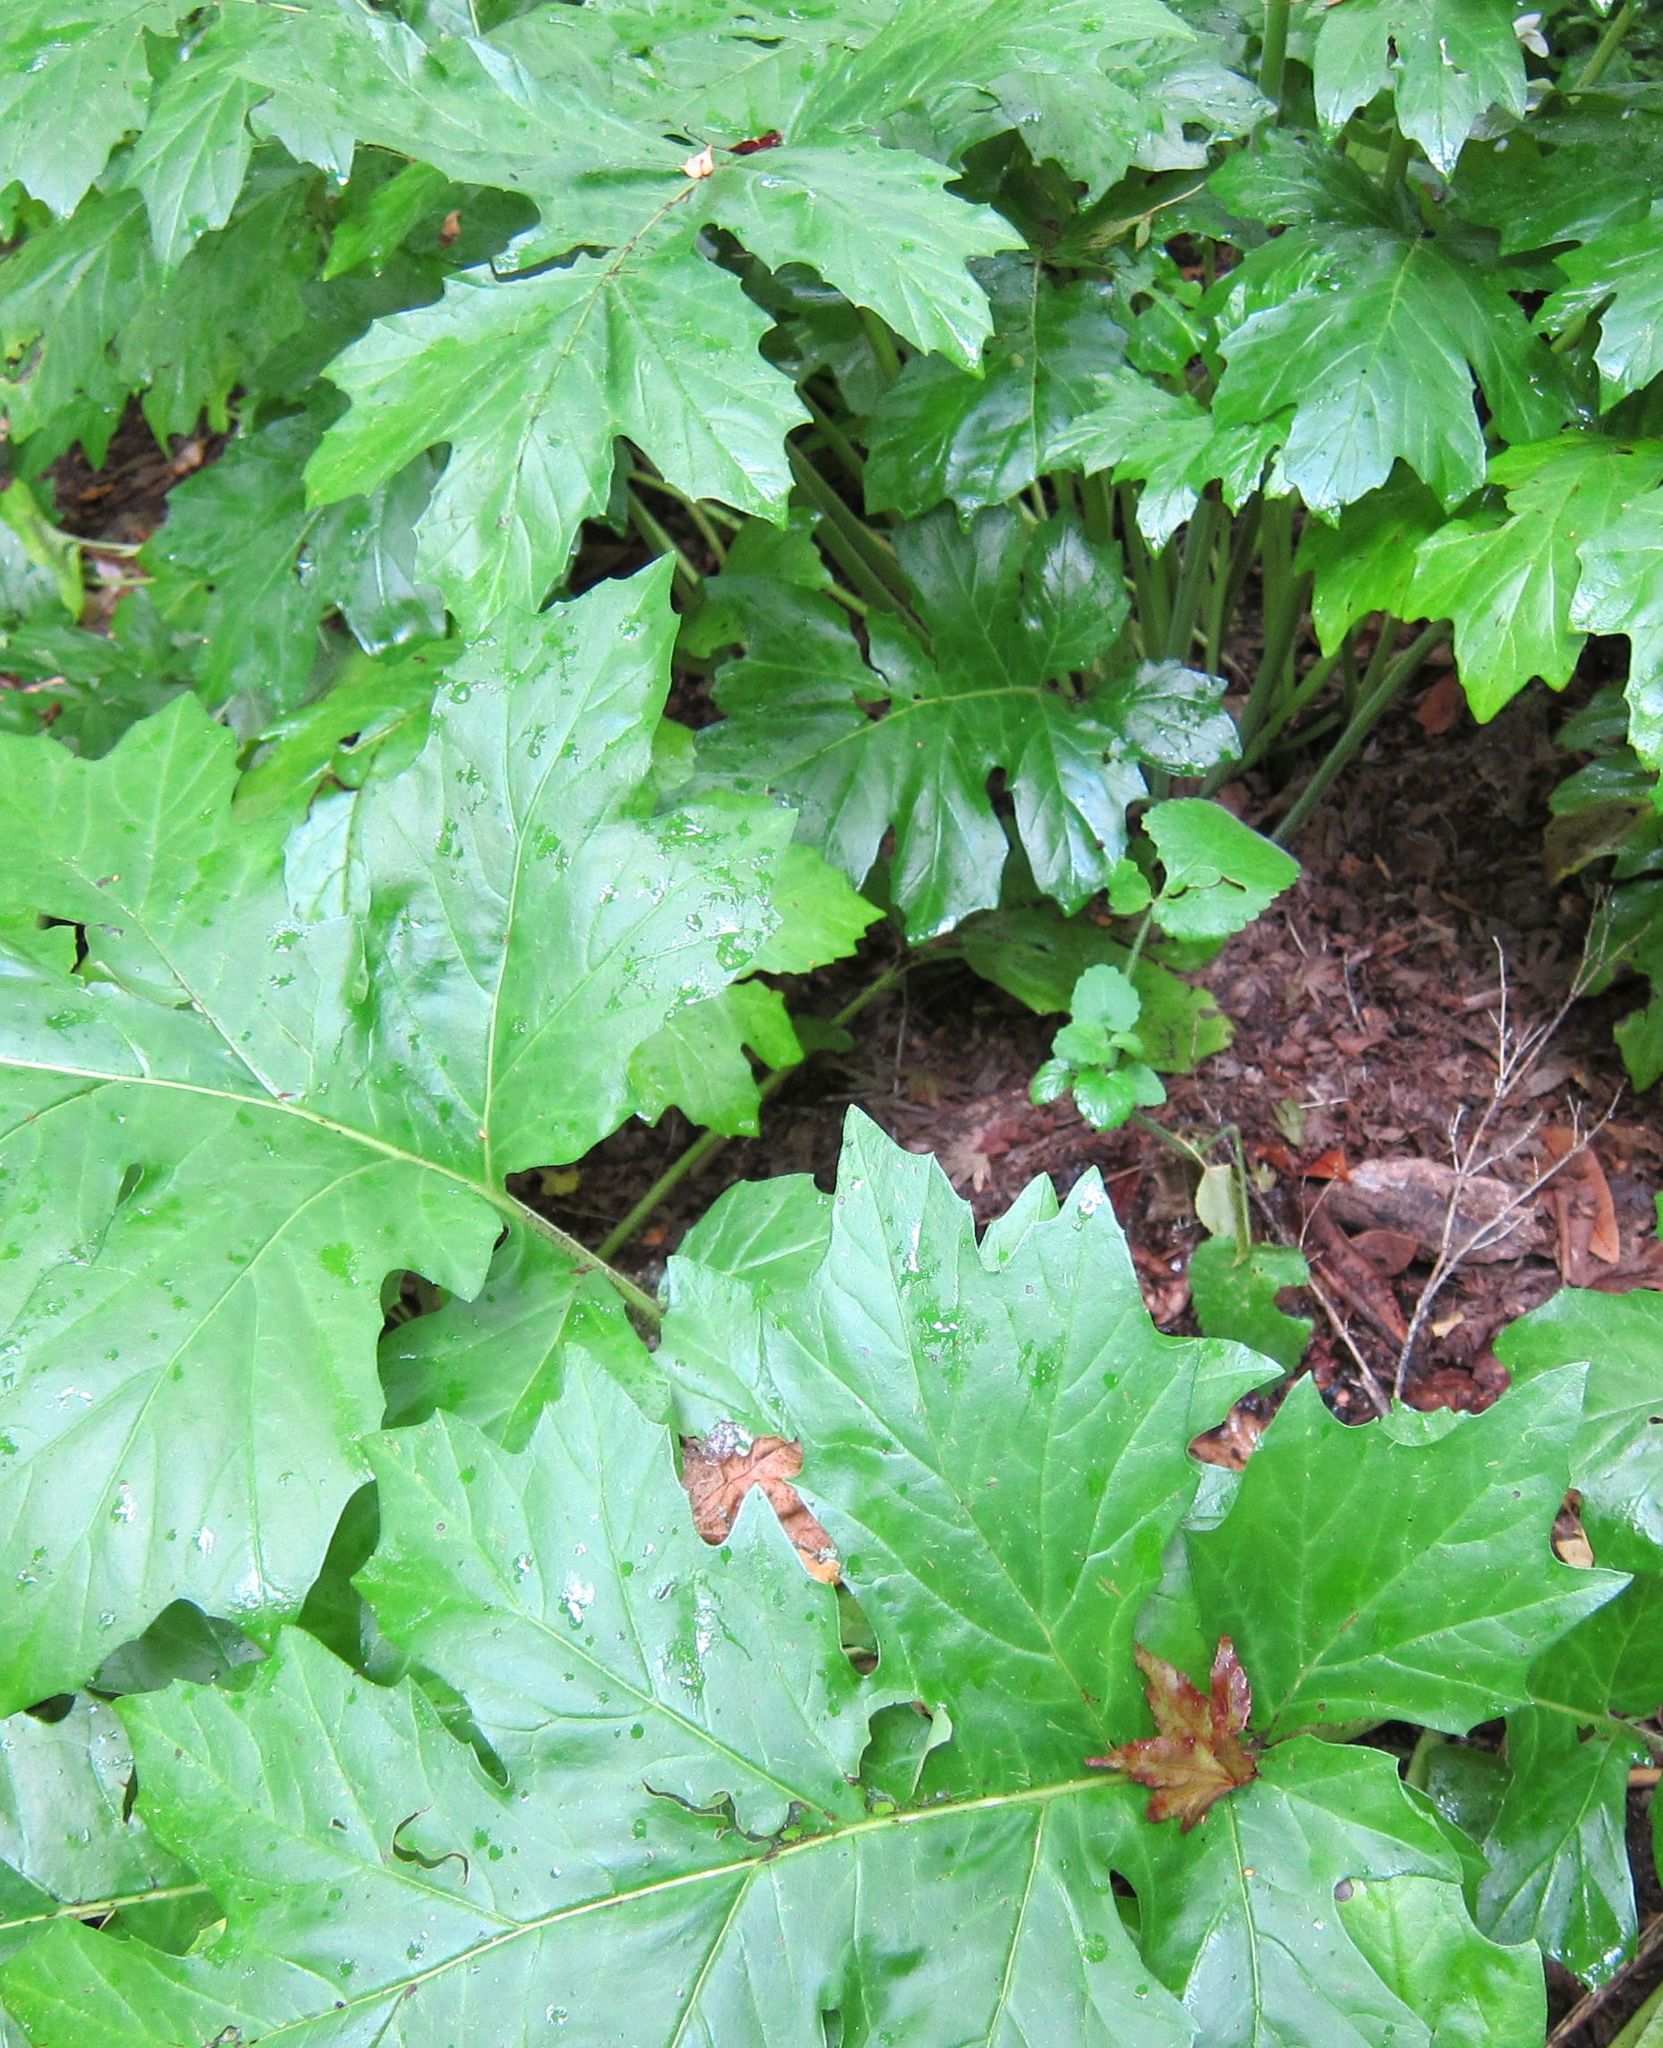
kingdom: Plantae
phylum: Tracheophyta
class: Magnoliopsida
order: Lamiales
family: Acanthaceae
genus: Acanthus
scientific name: Acanthus mollis
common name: Bear's-breech
